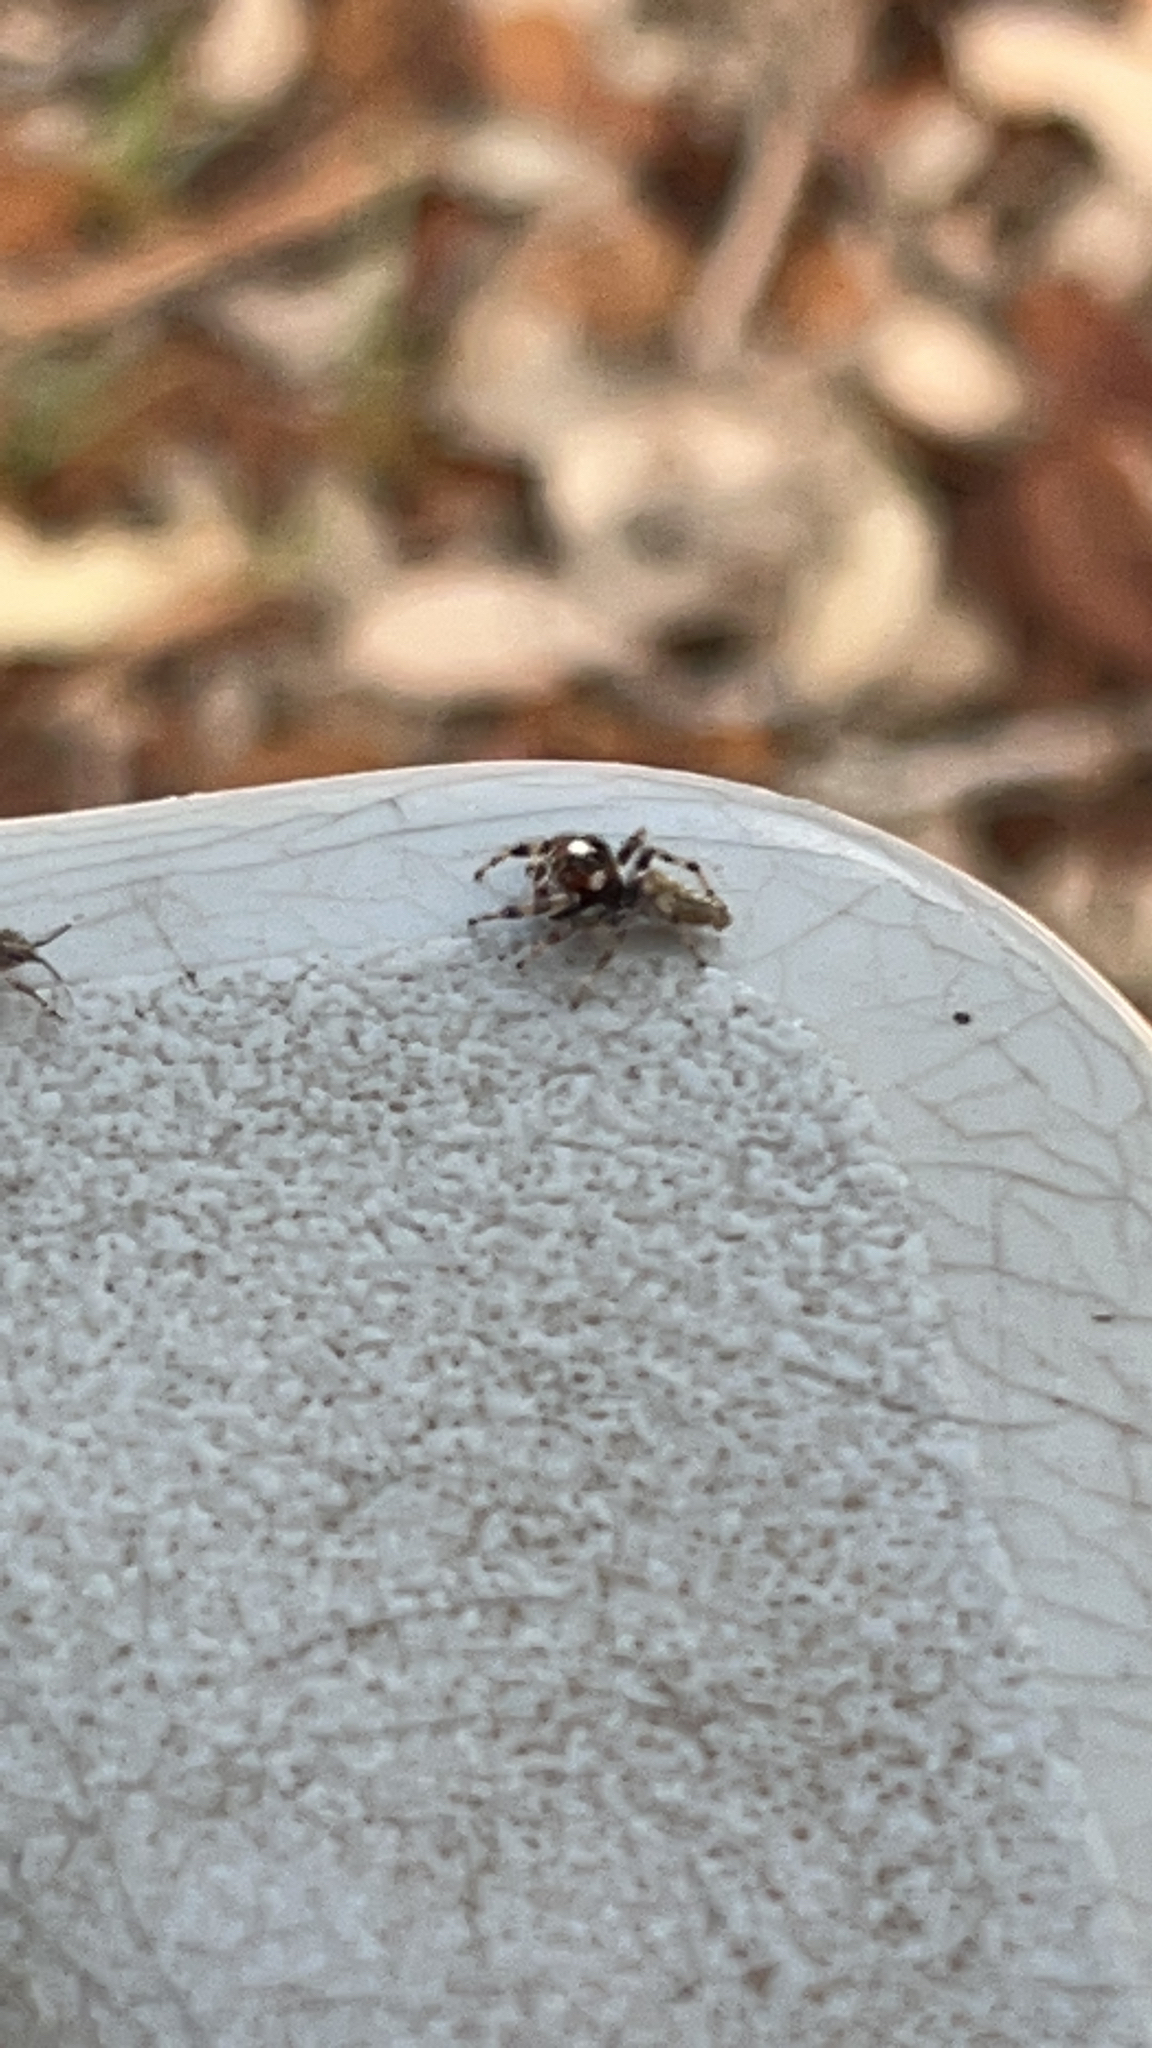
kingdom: Animalia
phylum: Arthropoda
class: Arachnida
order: Araneae
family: Salticidae
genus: Colonus
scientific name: Colonus hesperus
